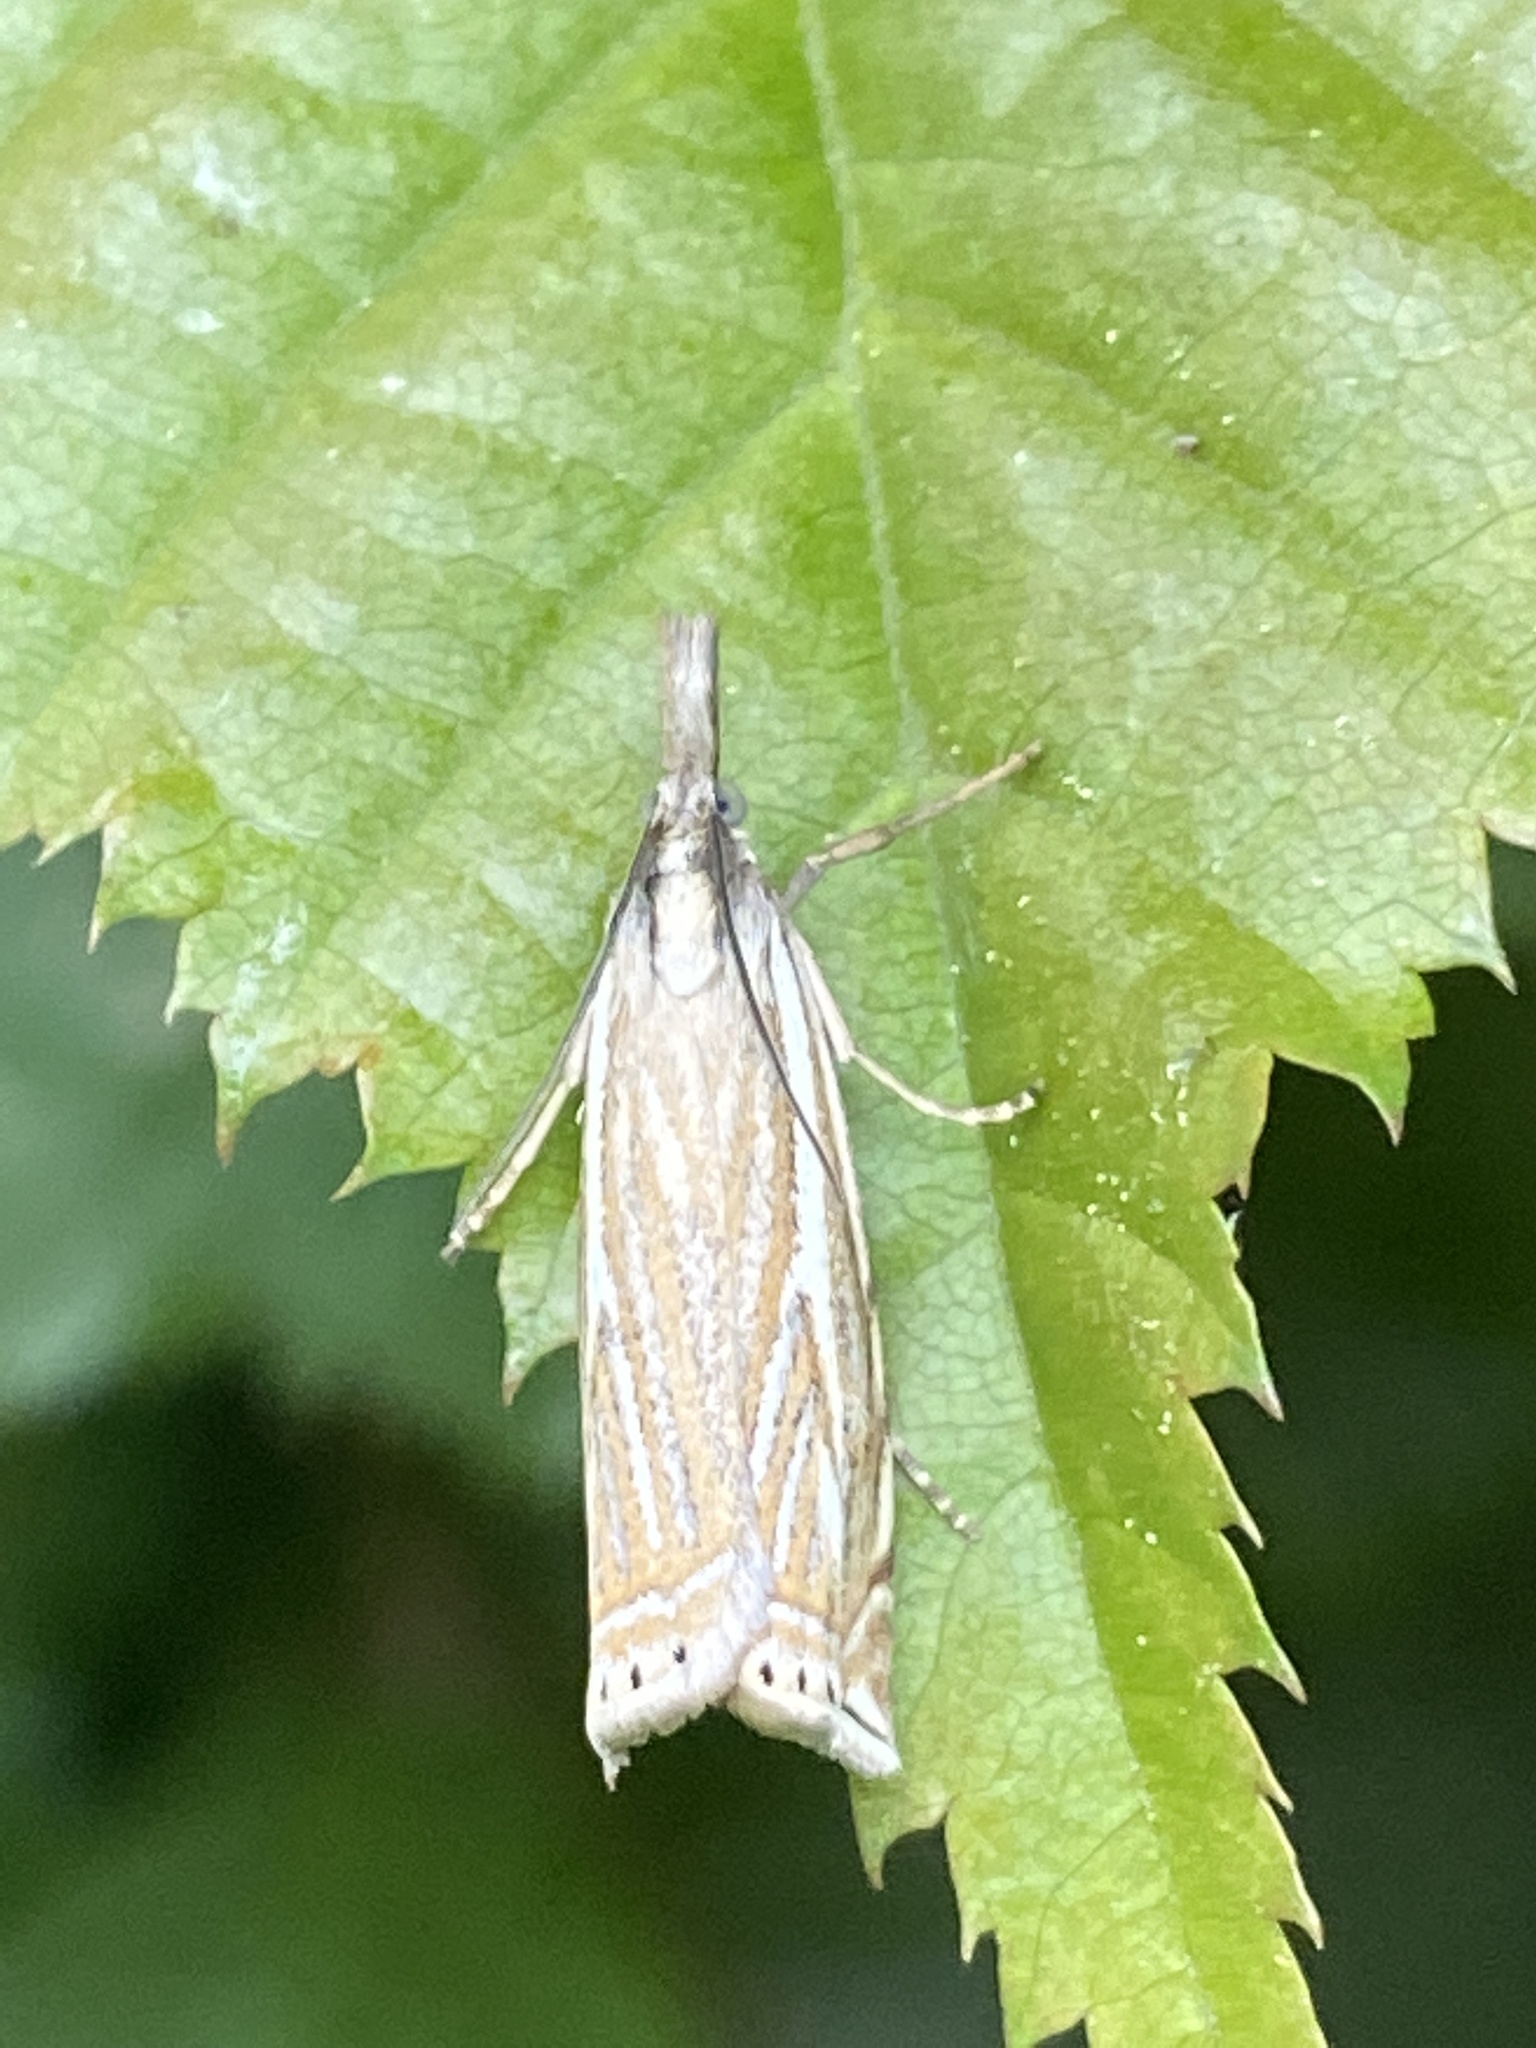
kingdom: Animalia
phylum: Arthropoda
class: Insecta
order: Lepidoptera
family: Crambidae
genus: Crambus
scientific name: Crambus nemorella
